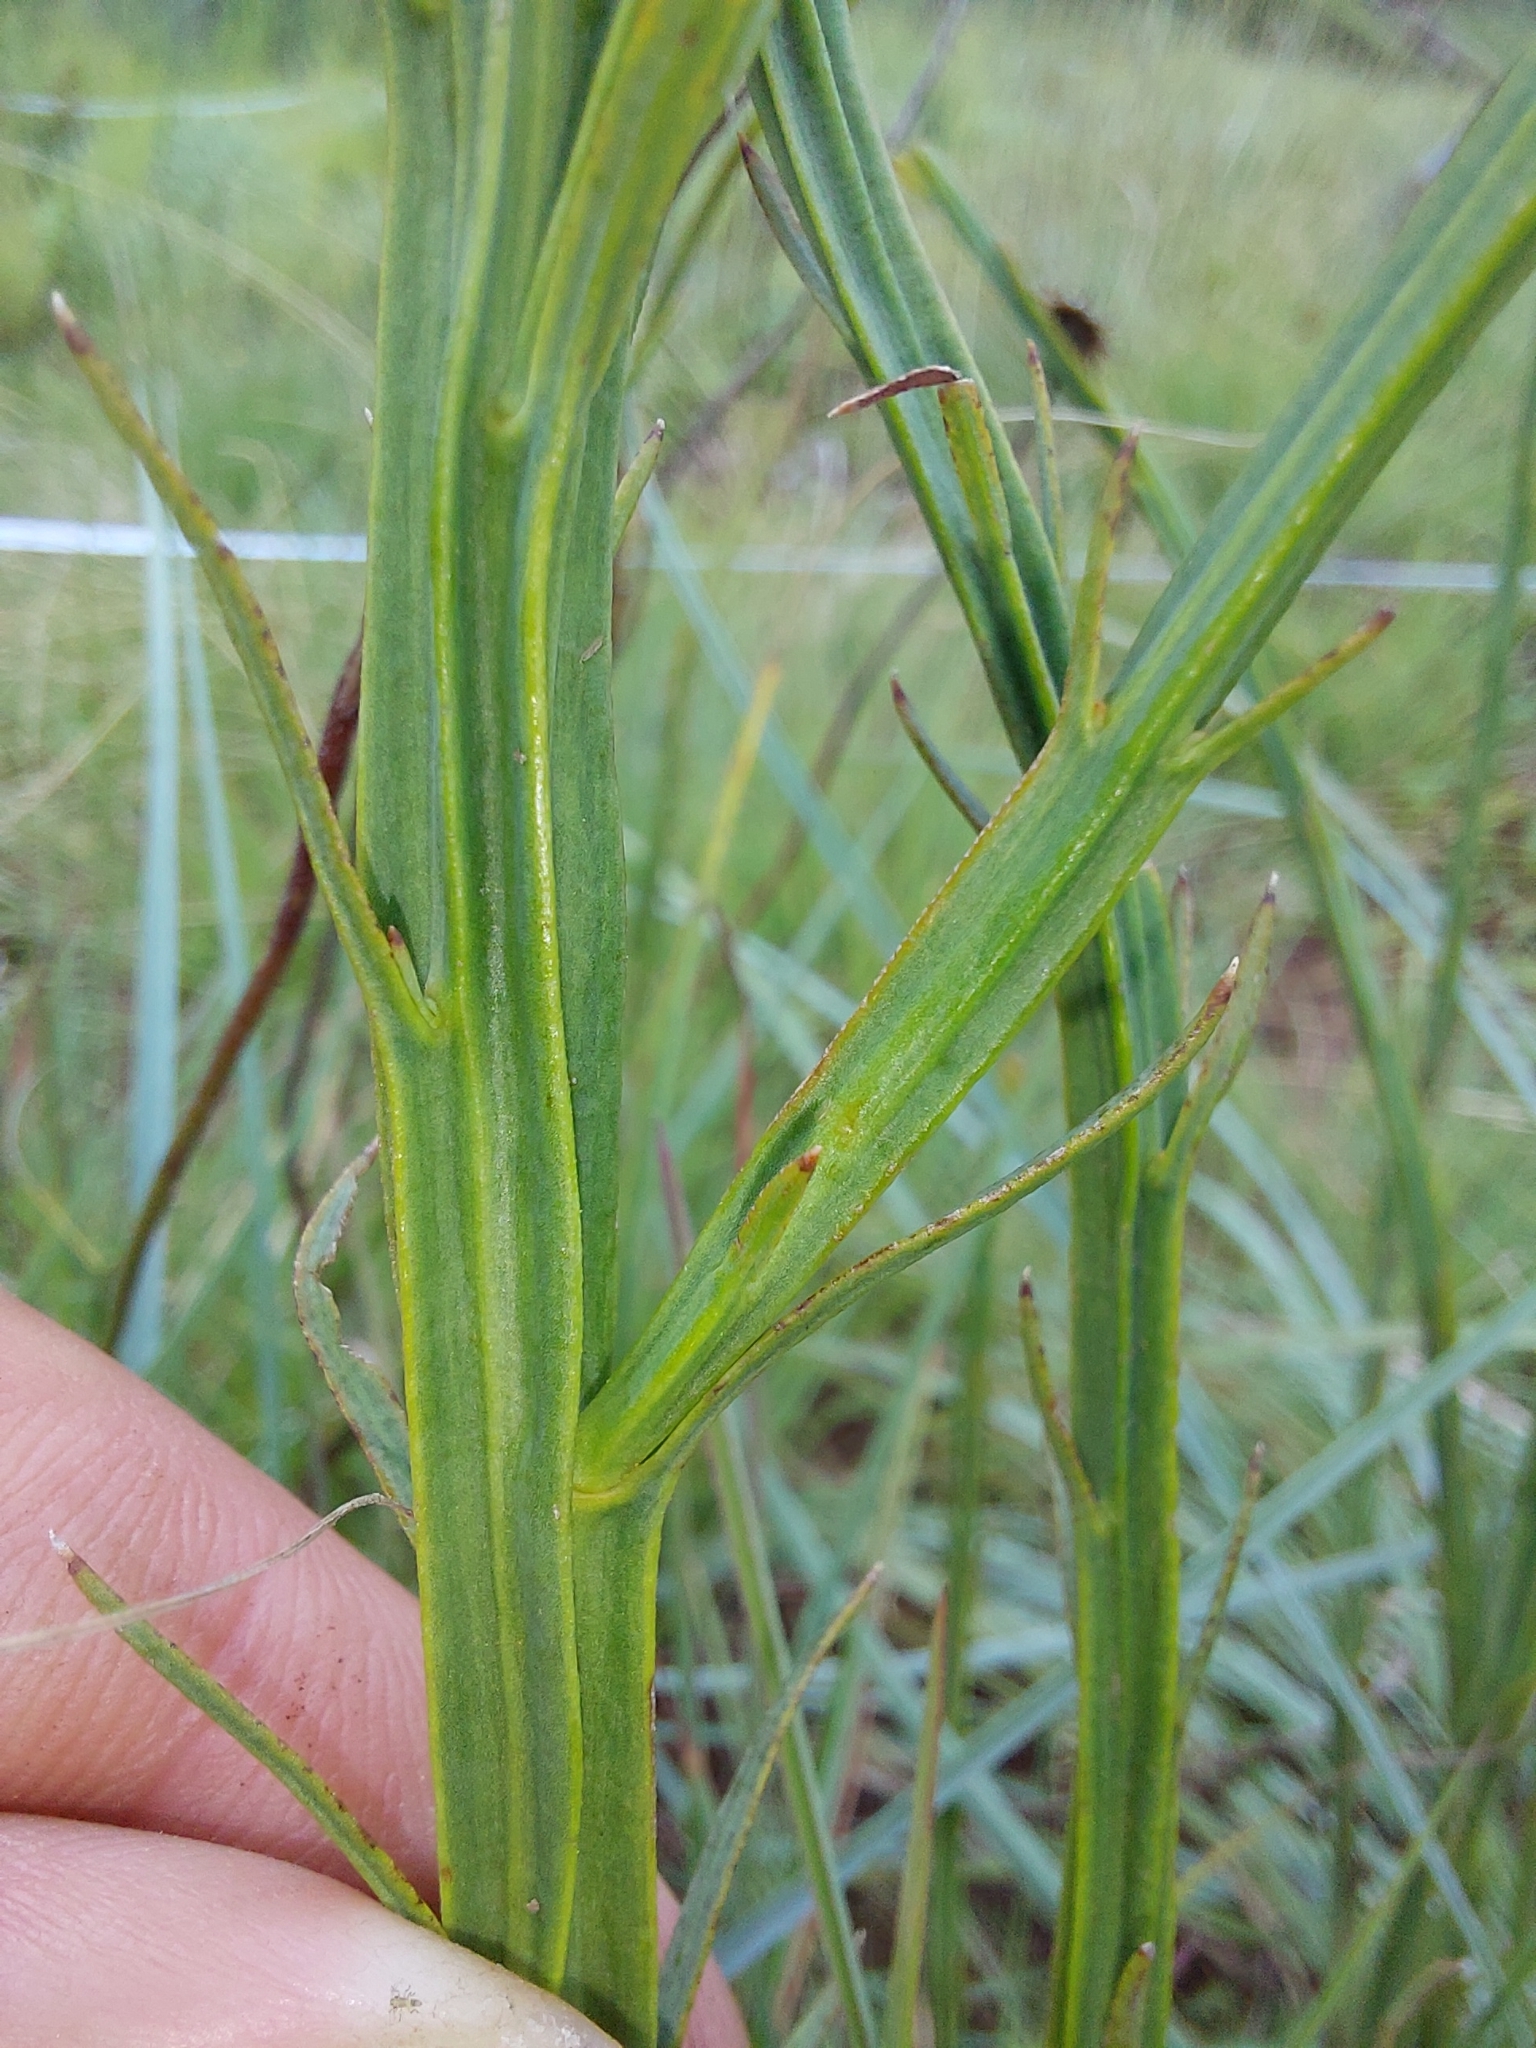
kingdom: Plantae
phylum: Tracheophyta
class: Magnoliopsida
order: Santalales
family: Thesiaceae
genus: Thesium
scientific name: Thesium alatum
